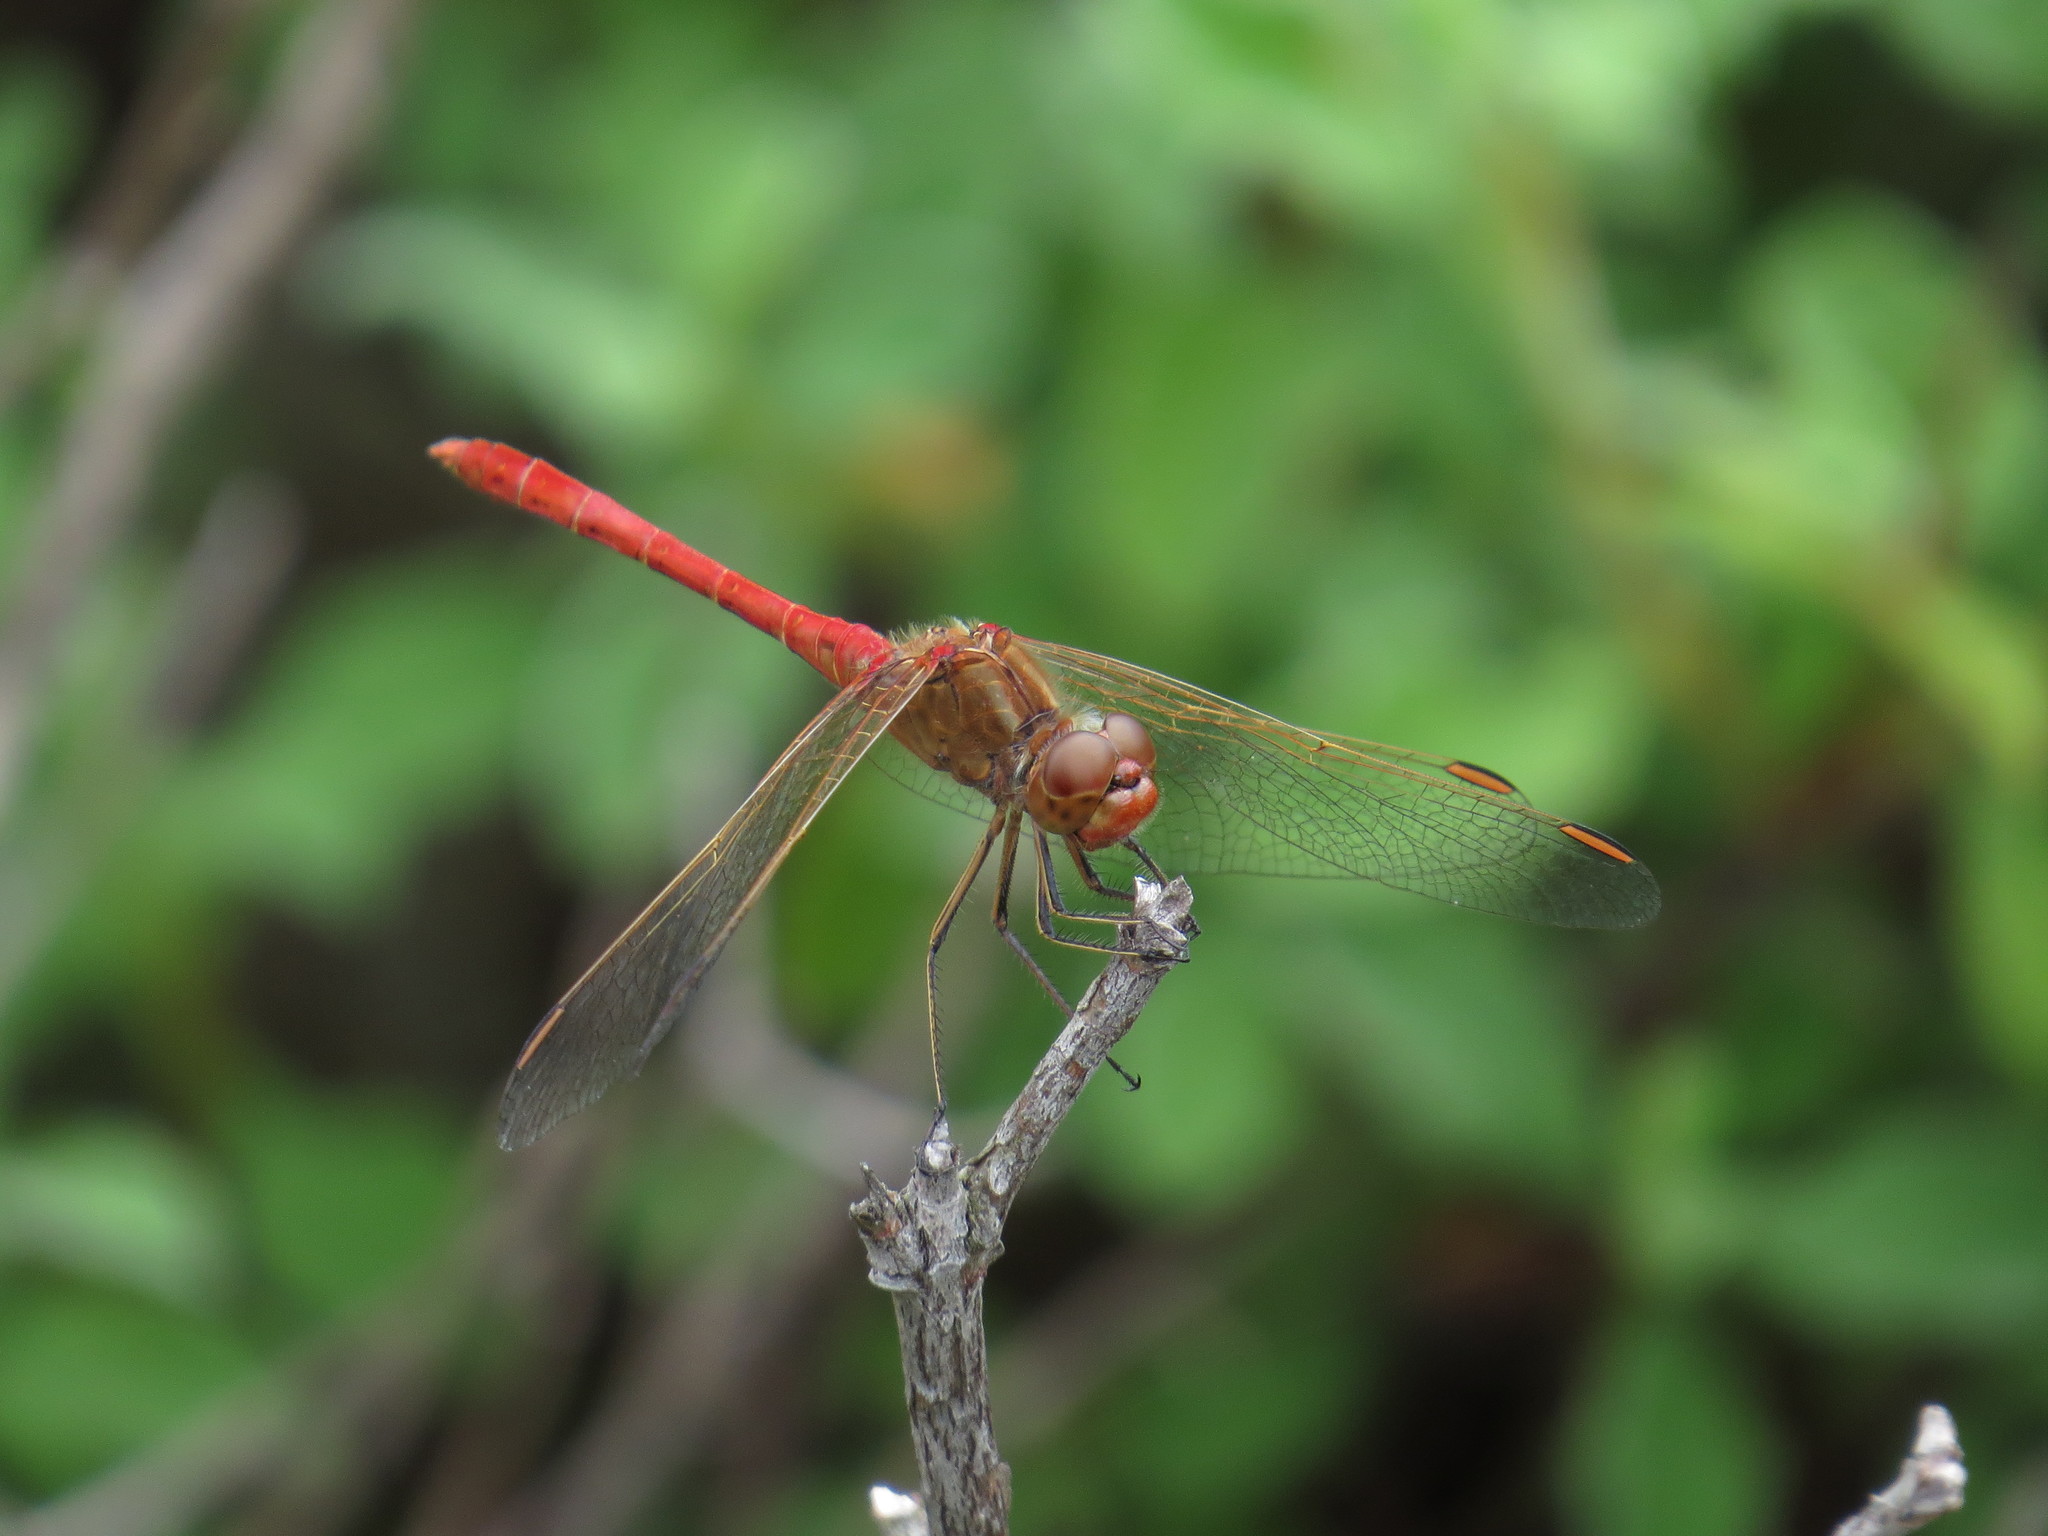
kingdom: Animalia
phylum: Arthropoda
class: Insecta
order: Odonata
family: Libellulidae
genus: Sympetrum
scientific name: Sympetrum meridionale
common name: Southern darter
